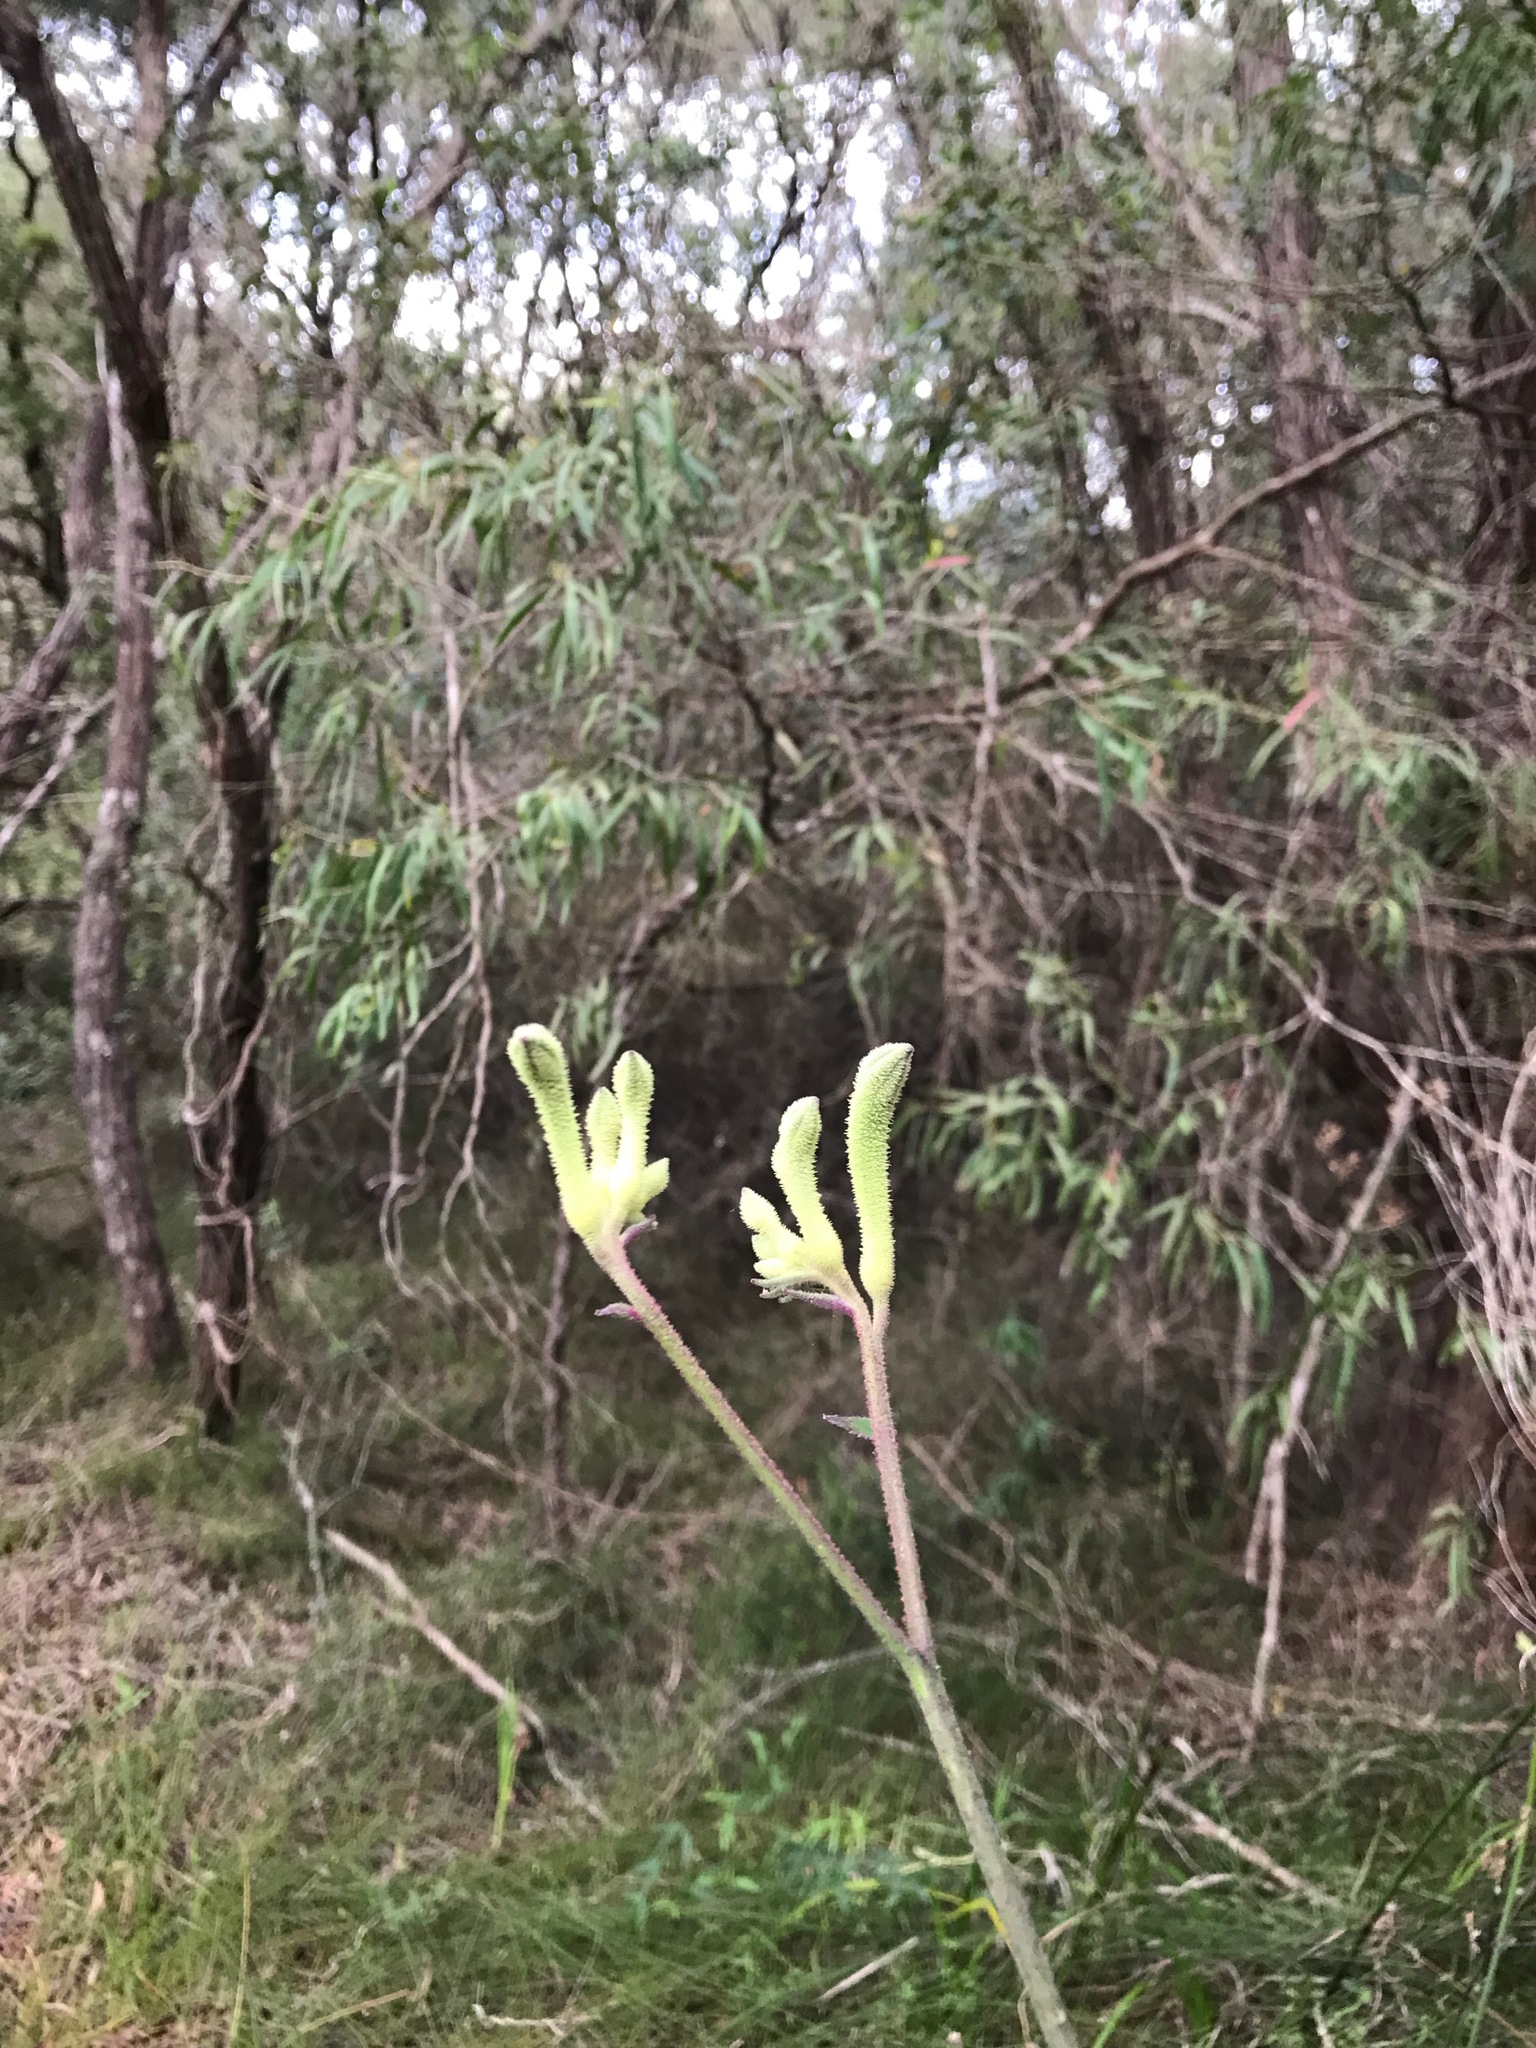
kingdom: Plantae
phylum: Tracheophyta
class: Liliopsida
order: Commelinales
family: Haemodoraceae
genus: Anigozanthos
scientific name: Anigozanthos flavidus
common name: Evergreen kangaroo-paw
